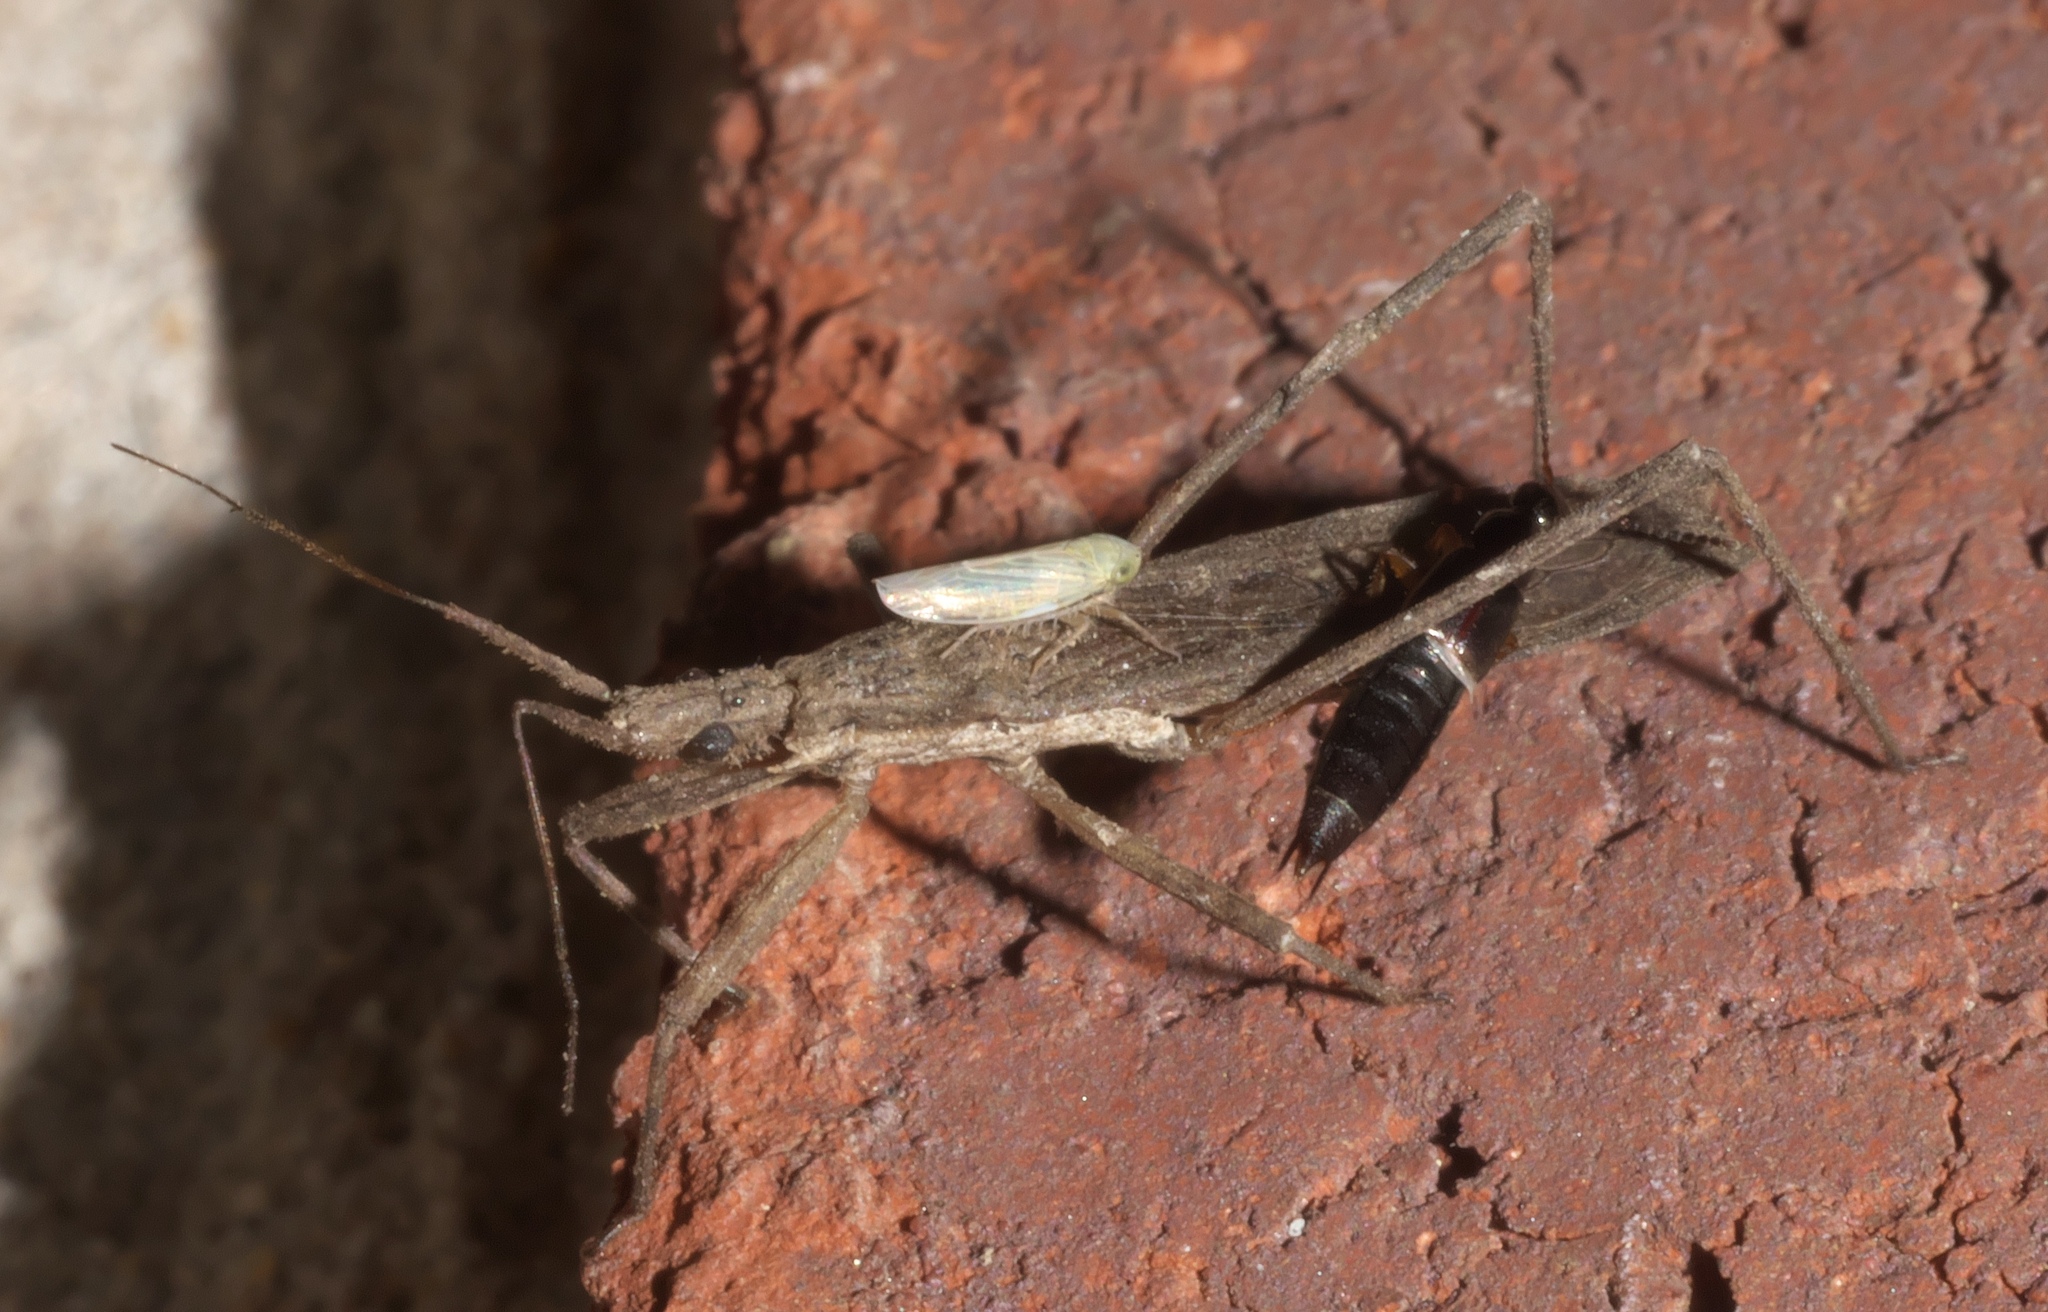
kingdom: Animalia
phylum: Arthropoda
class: Insecta
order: Hemiptera
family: Reduviidae
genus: Pygolampis
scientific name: Pygolampis pectoralis
